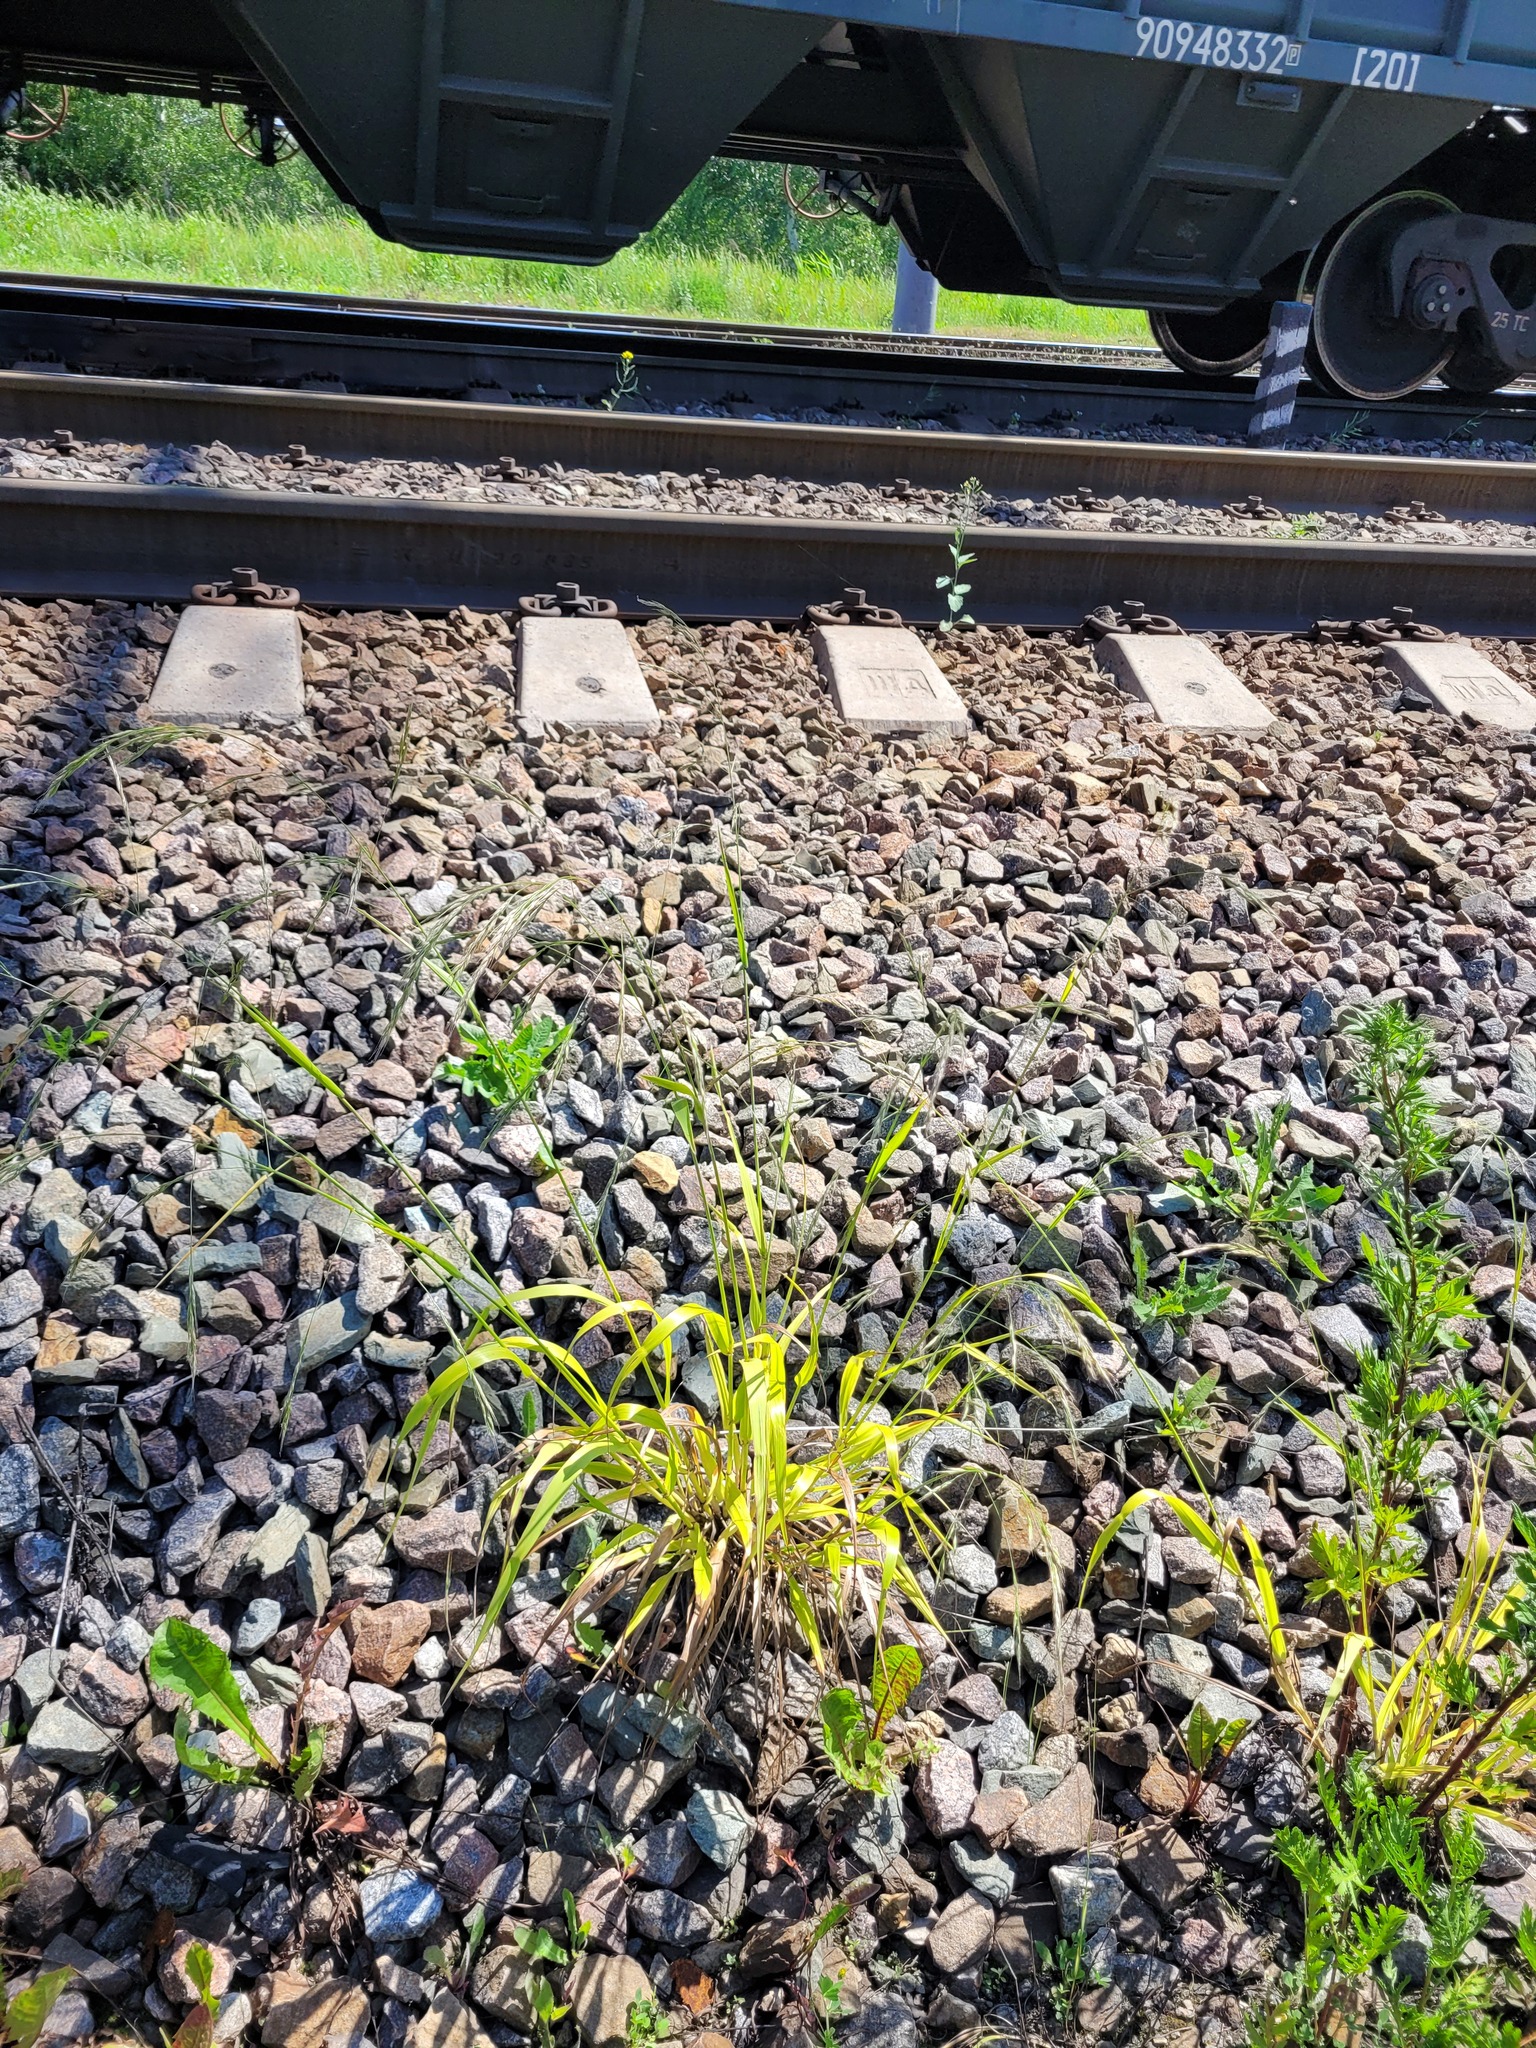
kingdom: Plantae
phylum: Tracheophyta
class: Liliopsida
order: Poales
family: Poaceae
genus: Lolium
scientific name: Lolium giganteum
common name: Giant fescue
